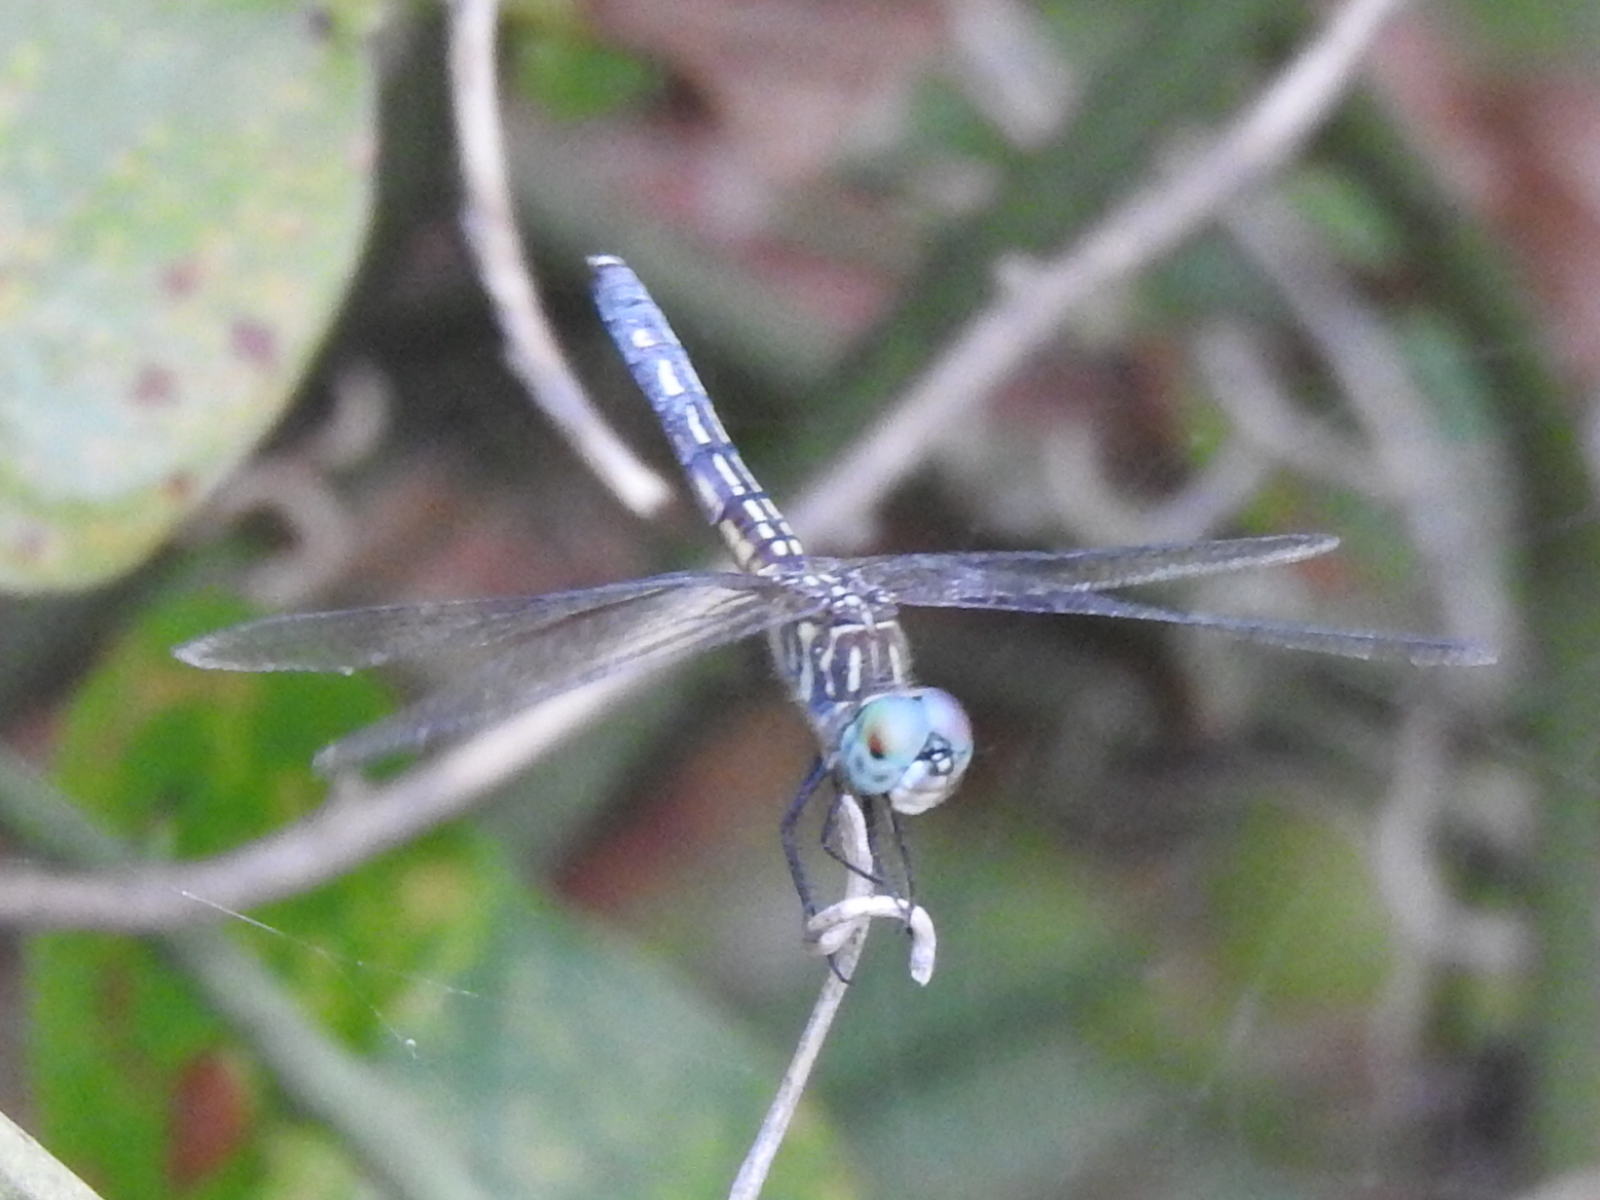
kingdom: Animalia
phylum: Arthropoda
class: Insecta
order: Odonata
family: Libellulidae
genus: Pachydiplax
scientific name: Pachydiplax longipennis
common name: Blue dasher
